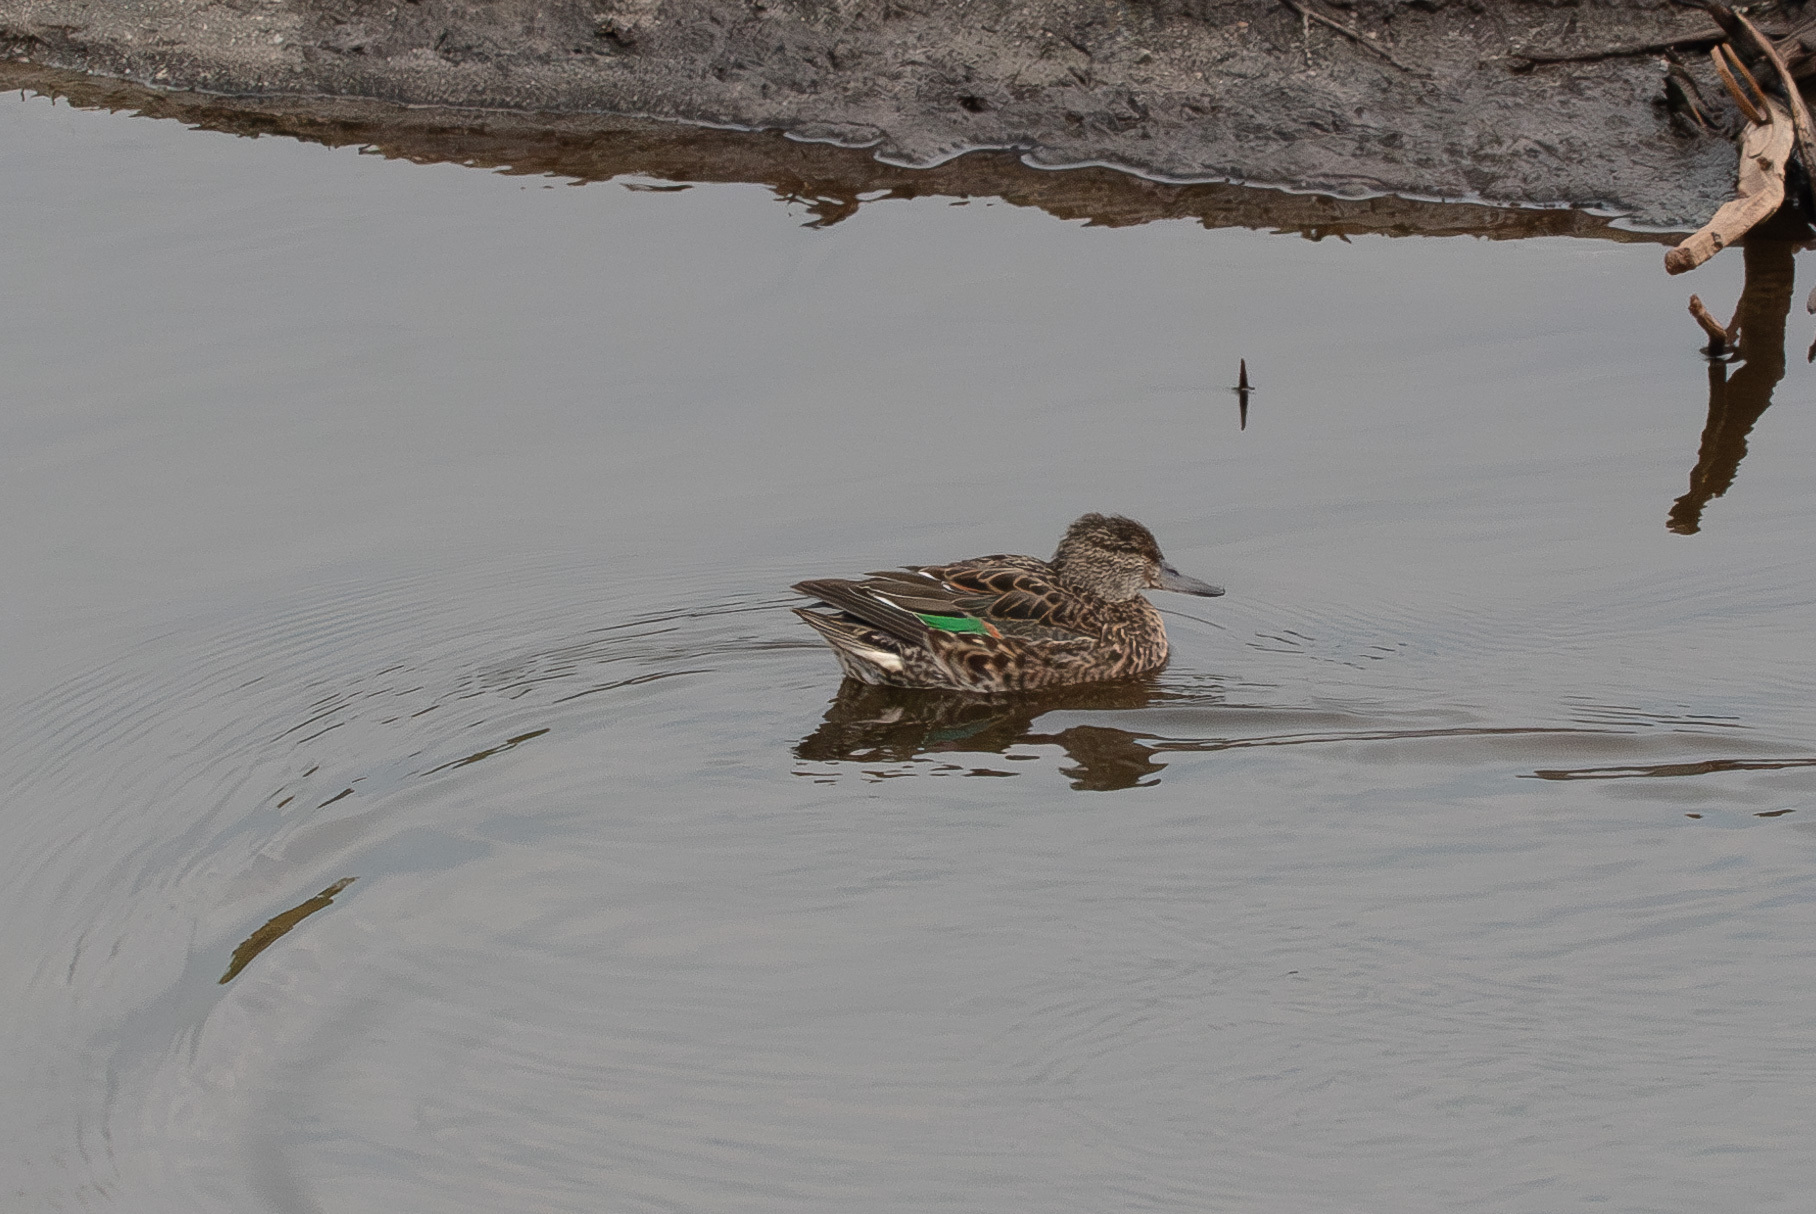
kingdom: Animalia
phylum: Chordata
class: Aves
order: Anseriformes
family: Anatidae
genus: Anas
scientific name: Anas crecca
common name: Eurasian teal
